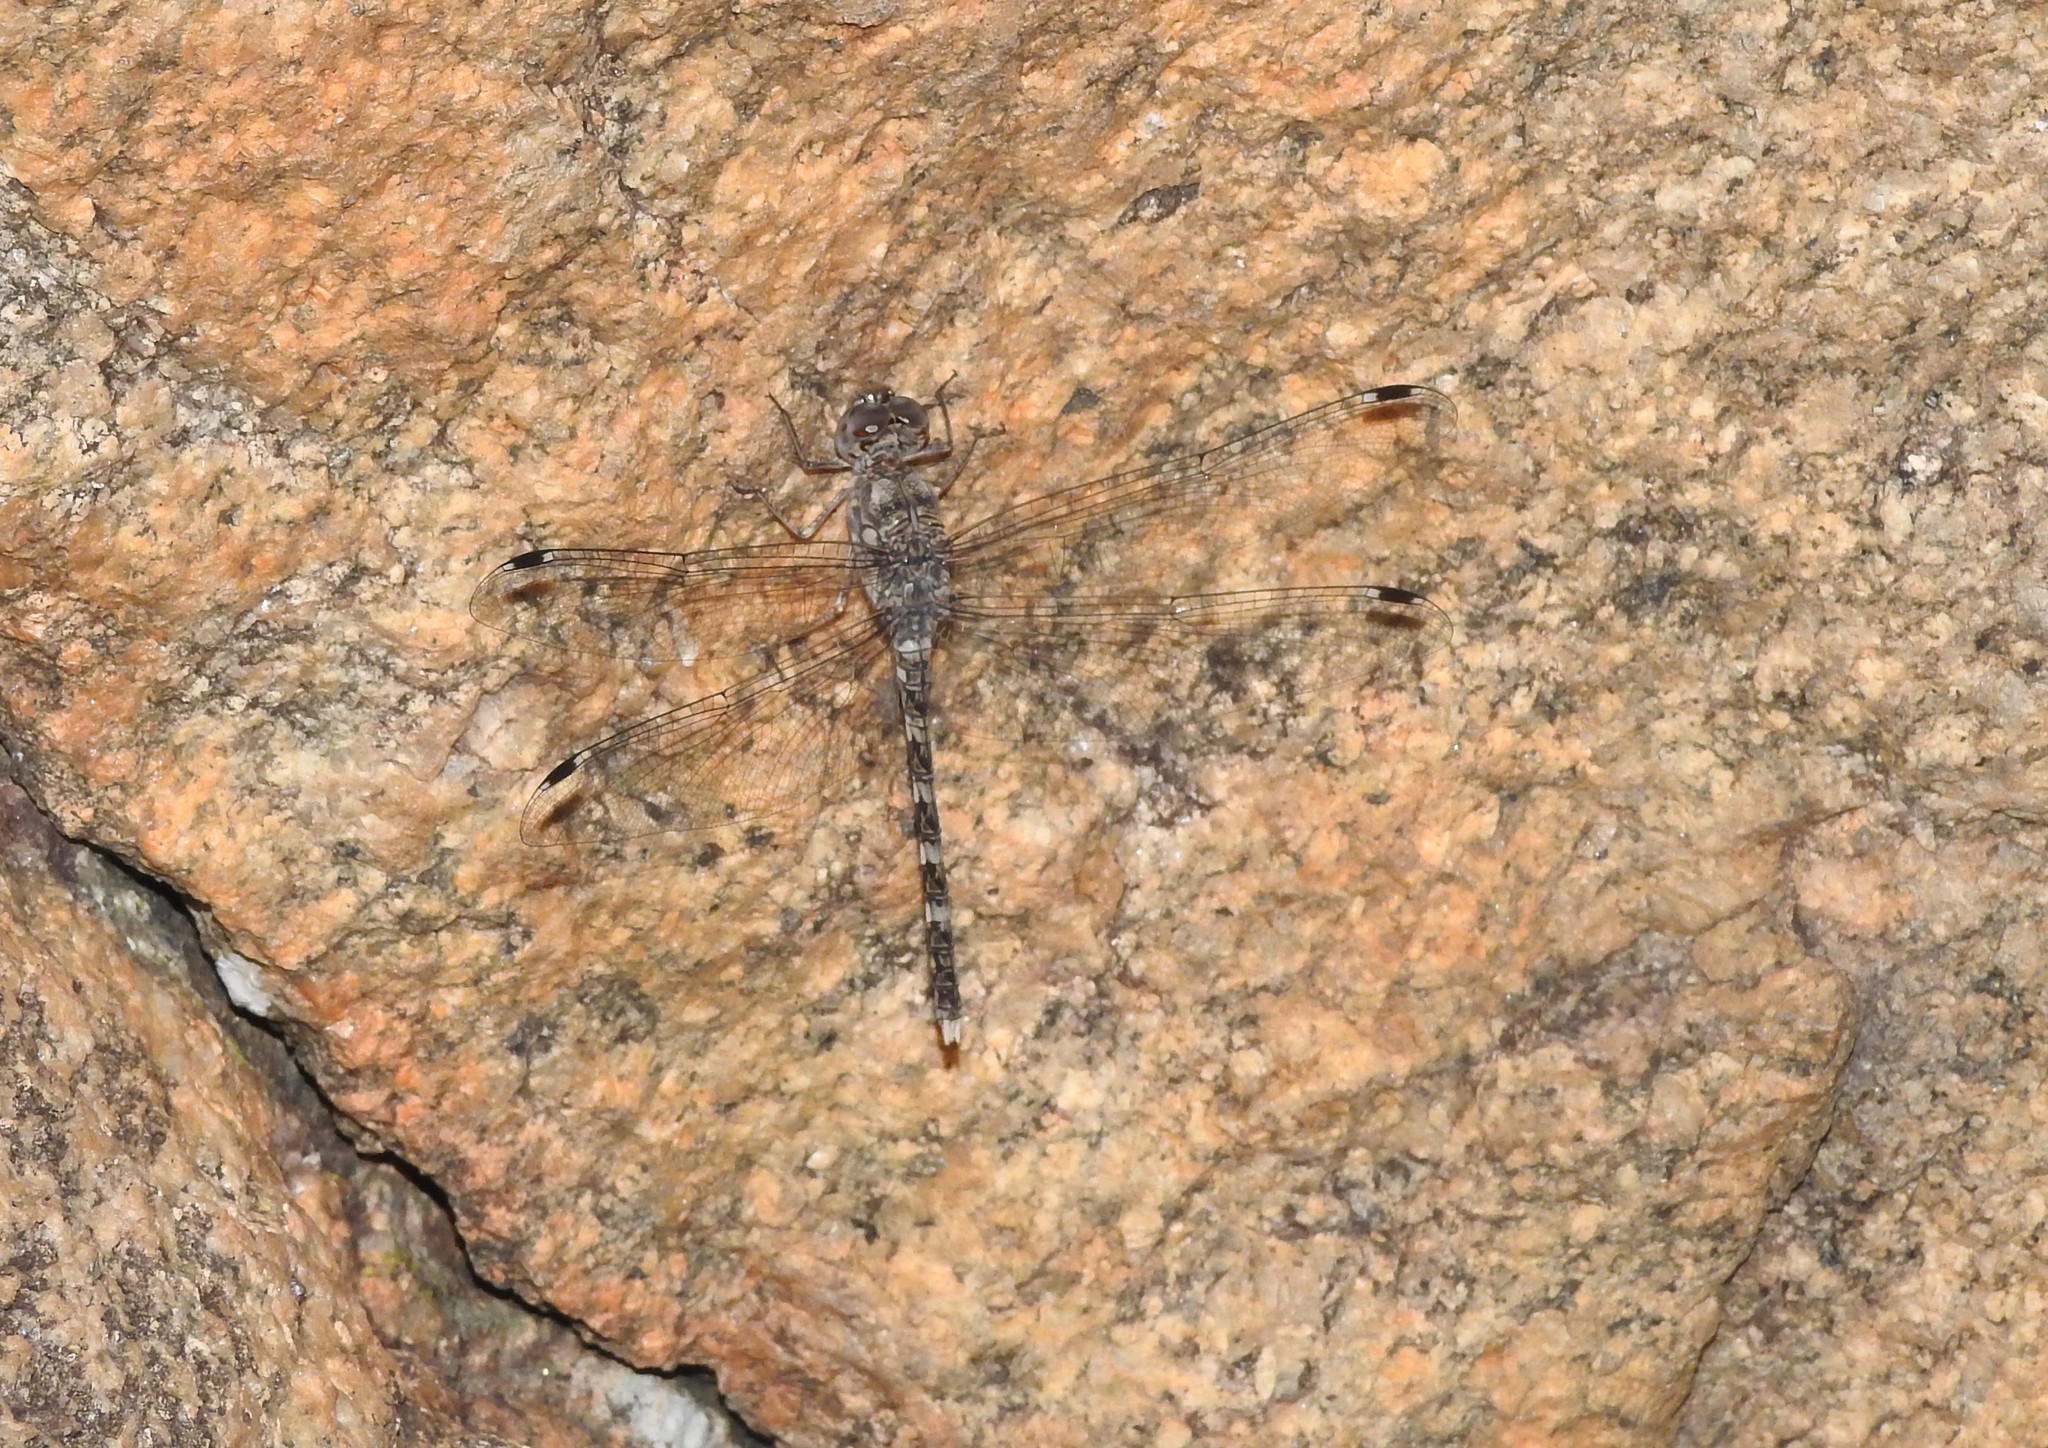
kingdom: Animalia
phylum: Arthropoda
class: Insecta
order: Odonata
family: Libellulidae
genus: Bradinopyga
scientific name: Bradinopyga geminata
